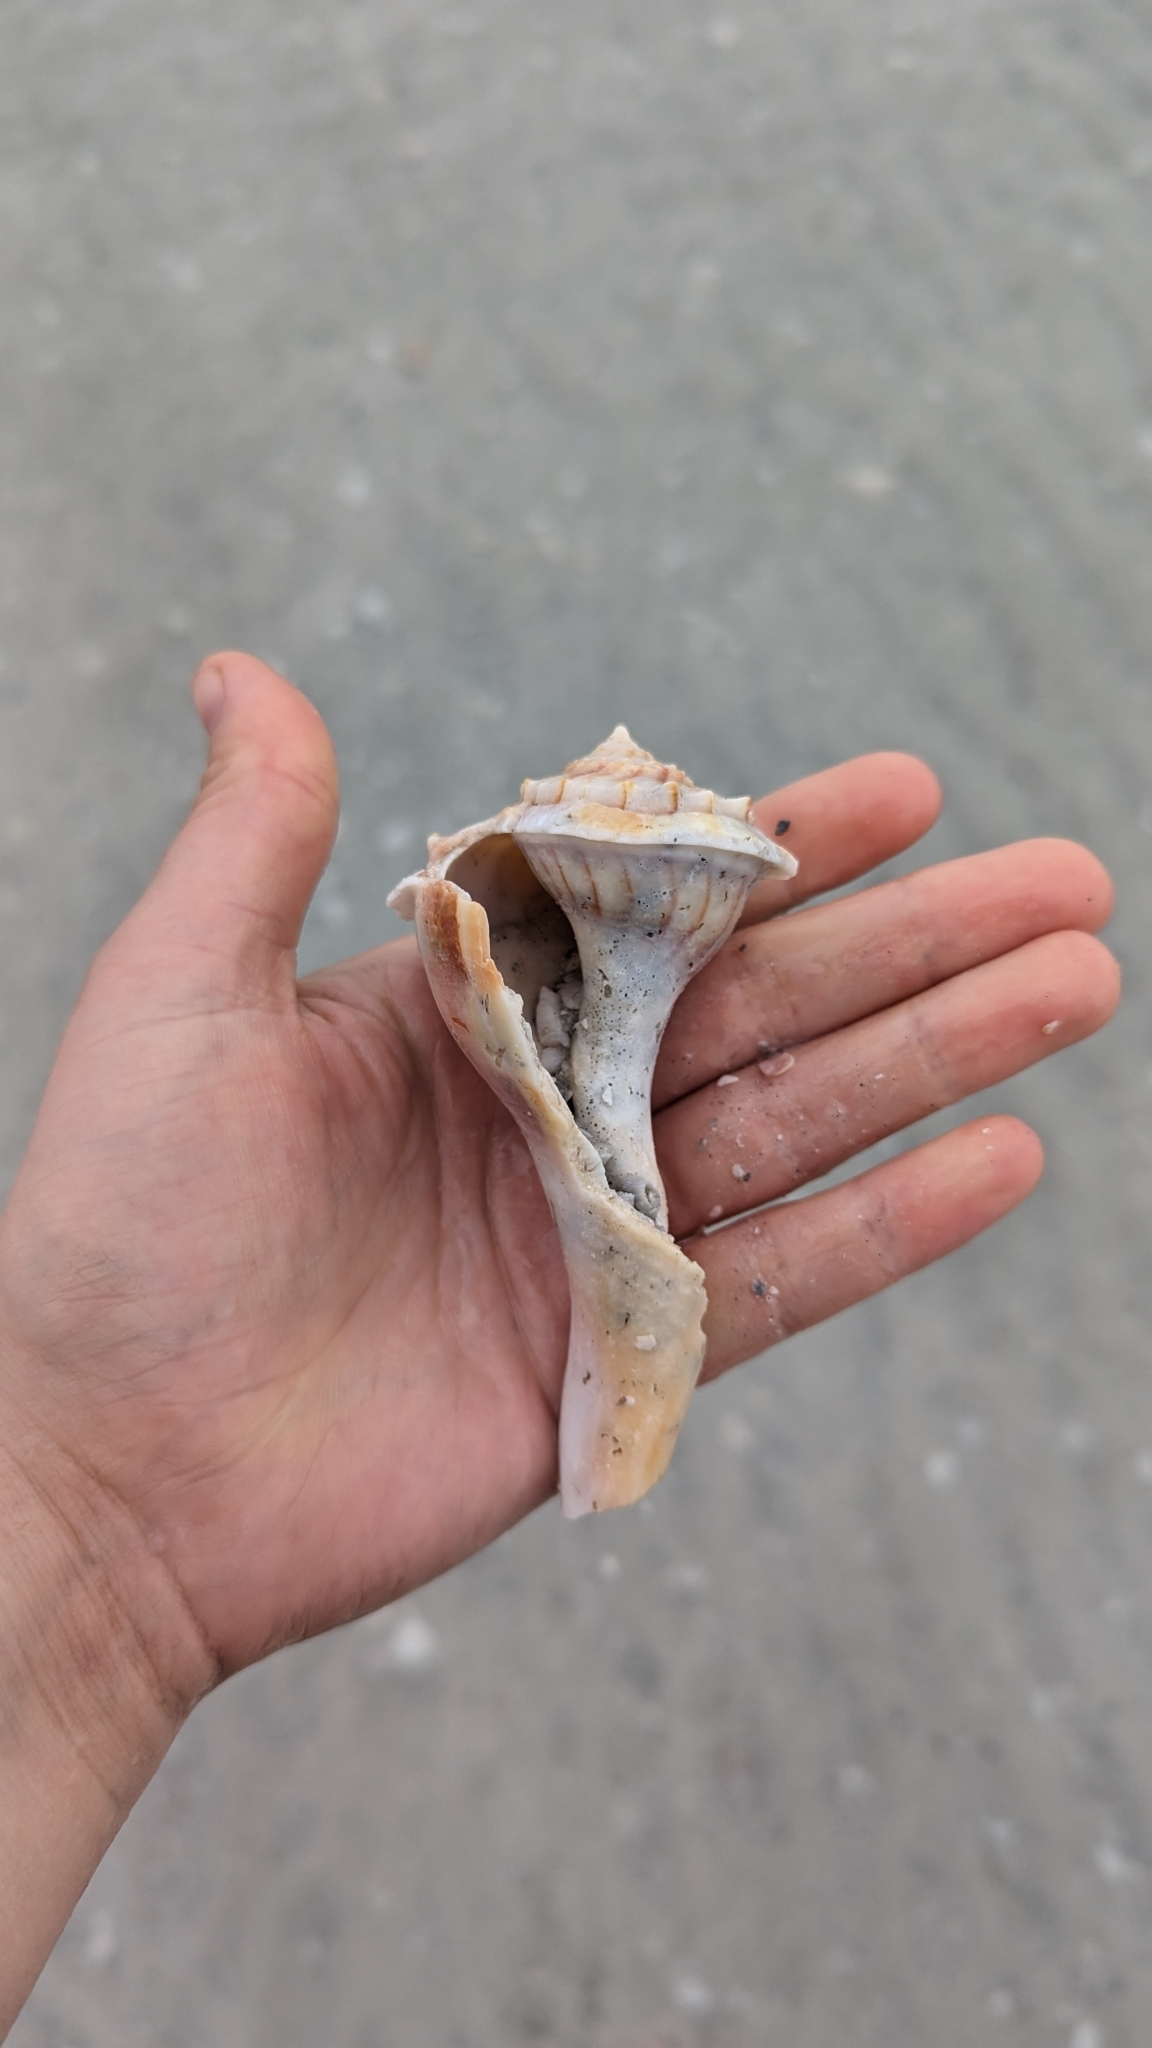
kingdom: Animalia
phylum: Mollusca
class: Gastropoda
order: Neogastropoda
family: Busyconidae
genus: Sinistrofulgur
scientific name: Sinistrofulgur sinistrum
